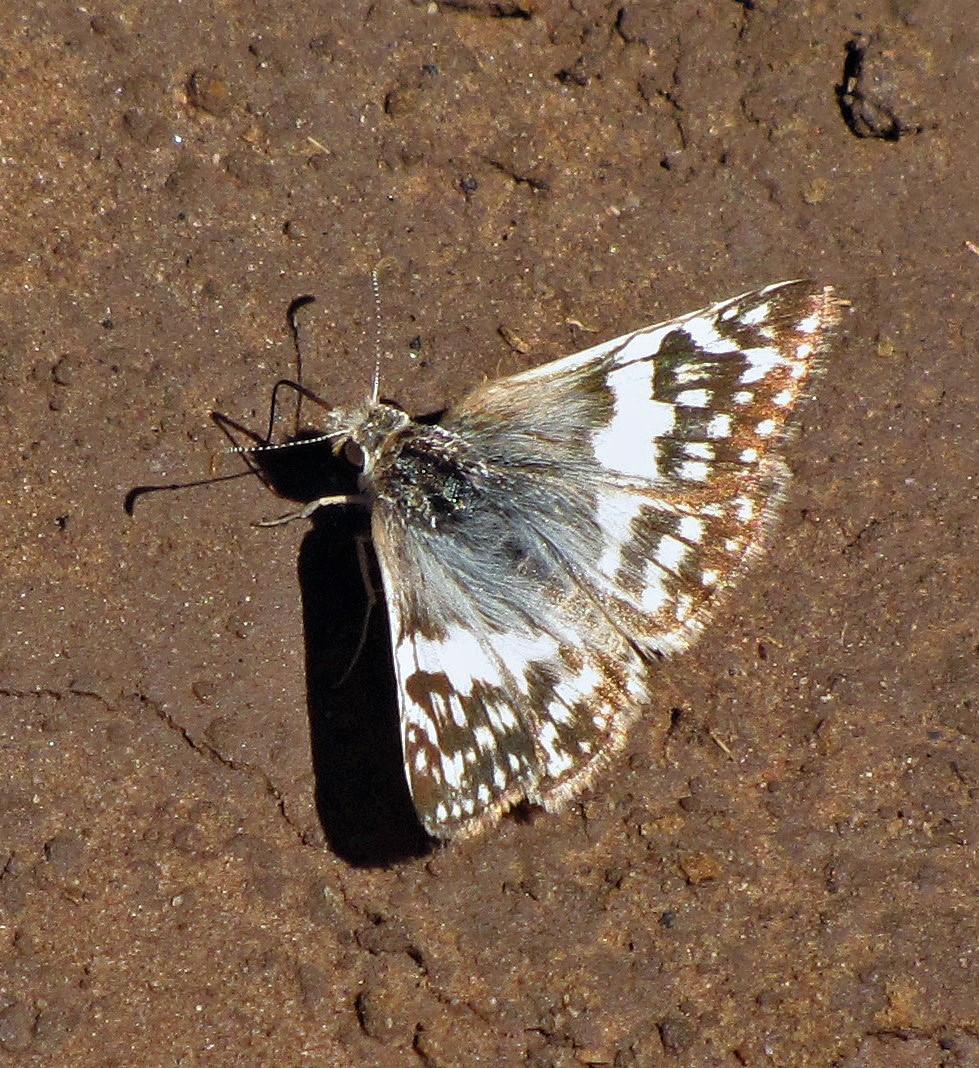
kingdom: Animalia
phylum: Arthropoda
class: Insecta
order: Lepidoptera
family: Hesperiidae
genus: Heliopyrgus
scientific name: Heliopyrgus domicella
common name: Erichson's white skipper
